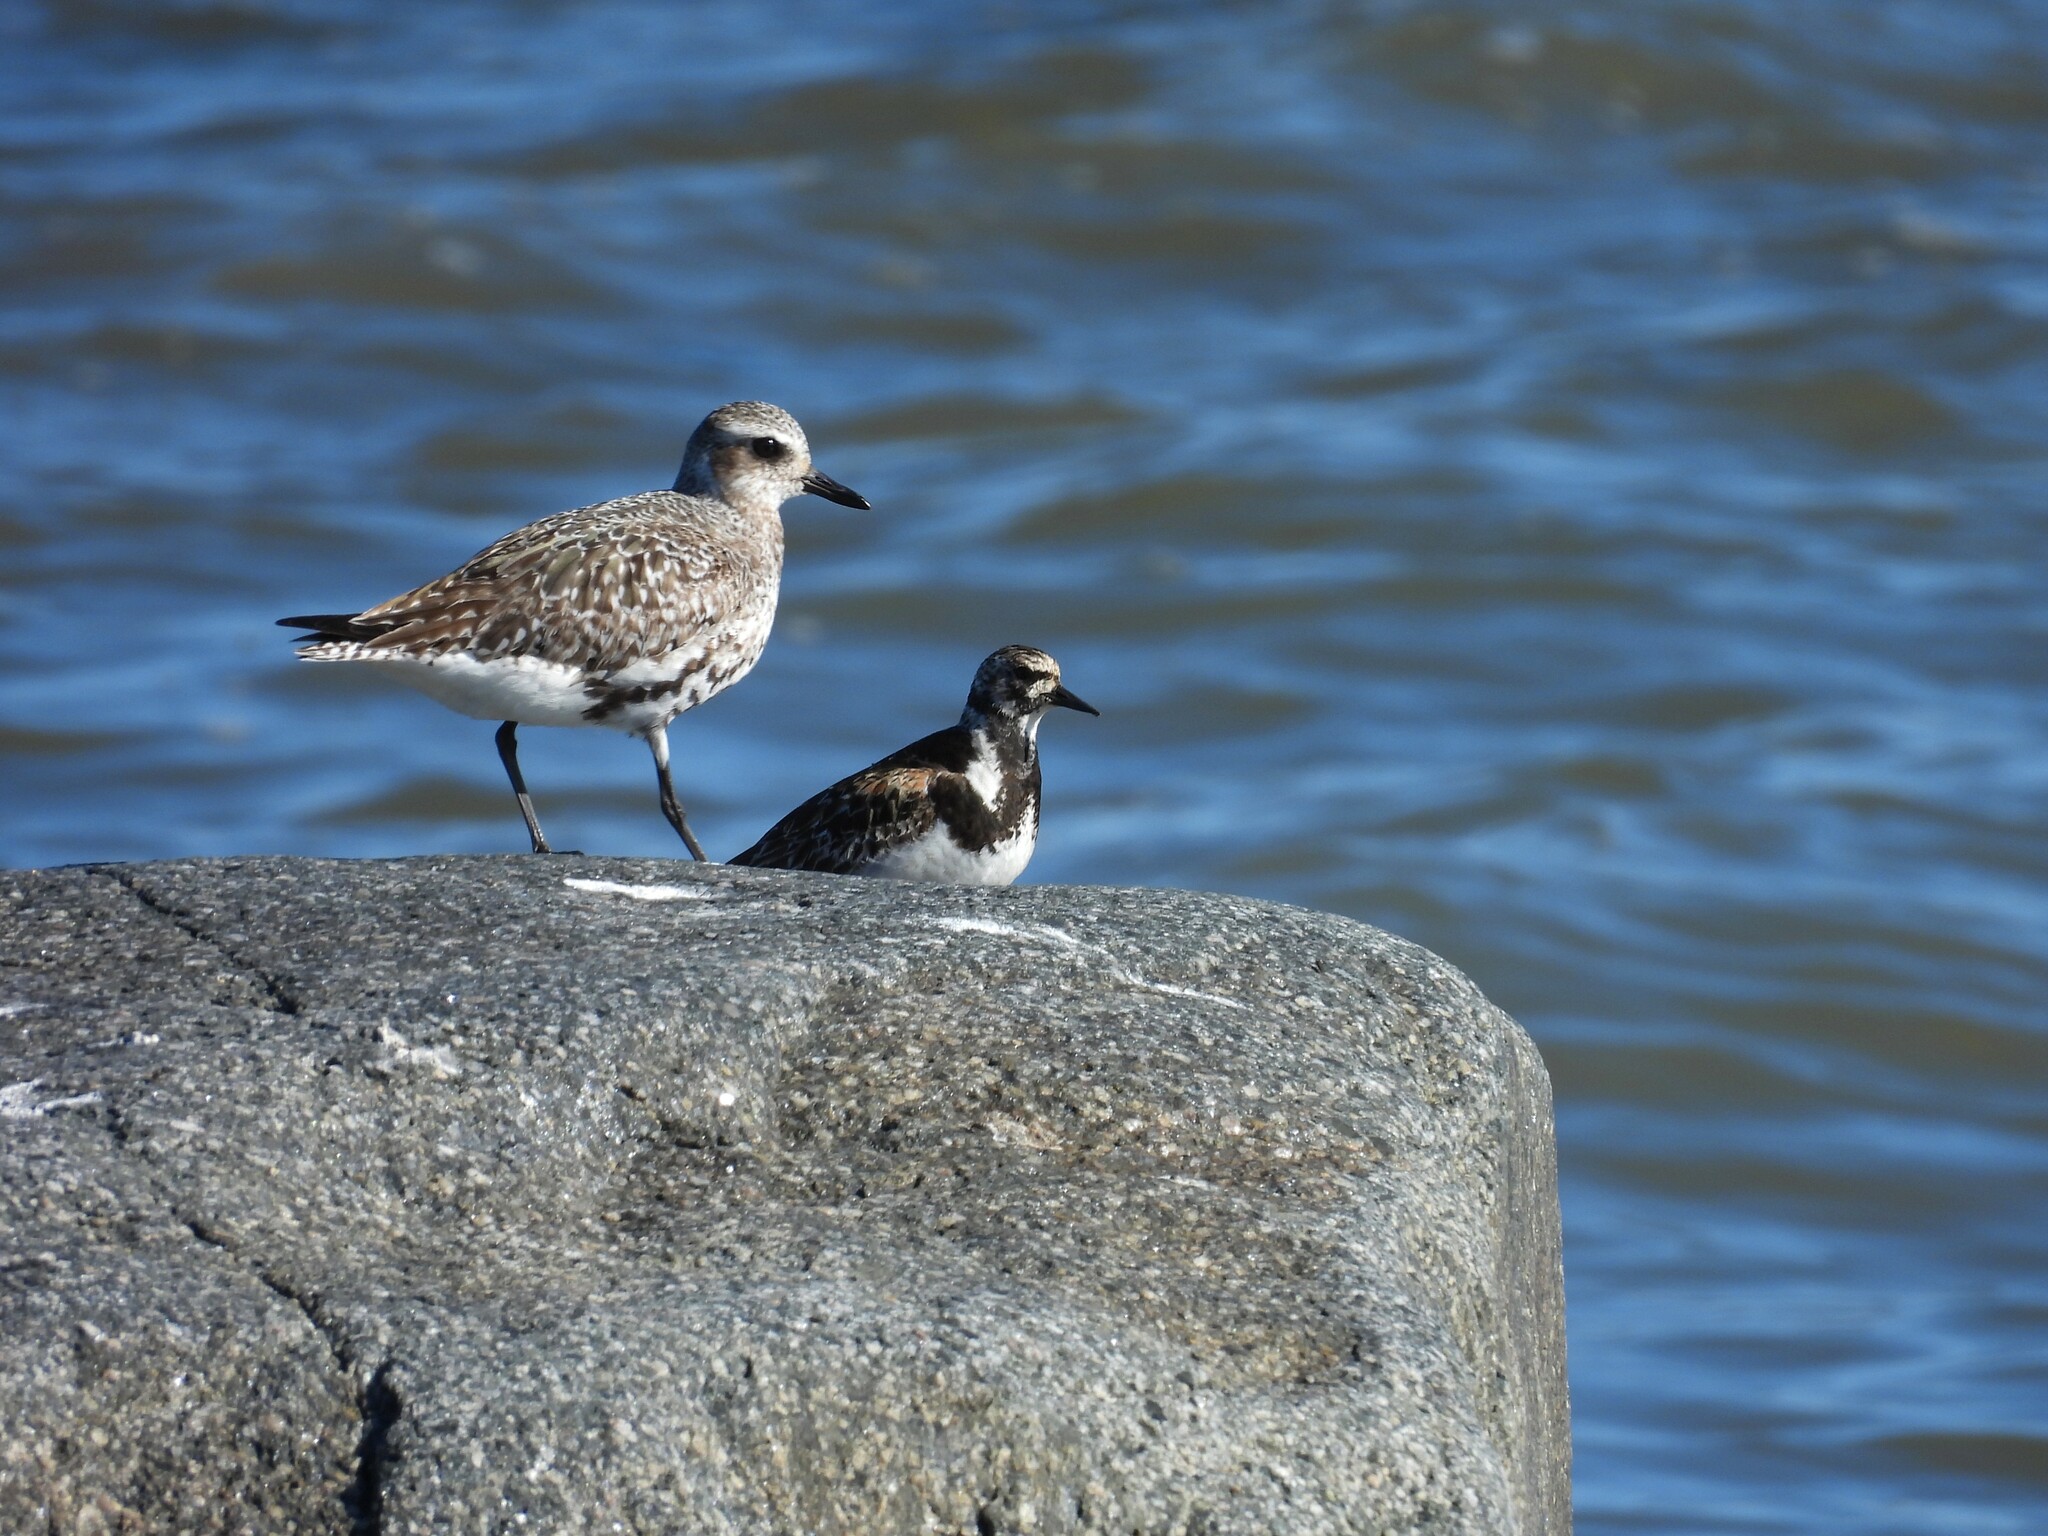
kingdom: Animalia
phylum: Chordata
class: Aves
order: Charadriiformes
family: Scolopacidae
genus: Arenaria
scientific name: Arenaria interpres
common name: Ruddy turnstone
